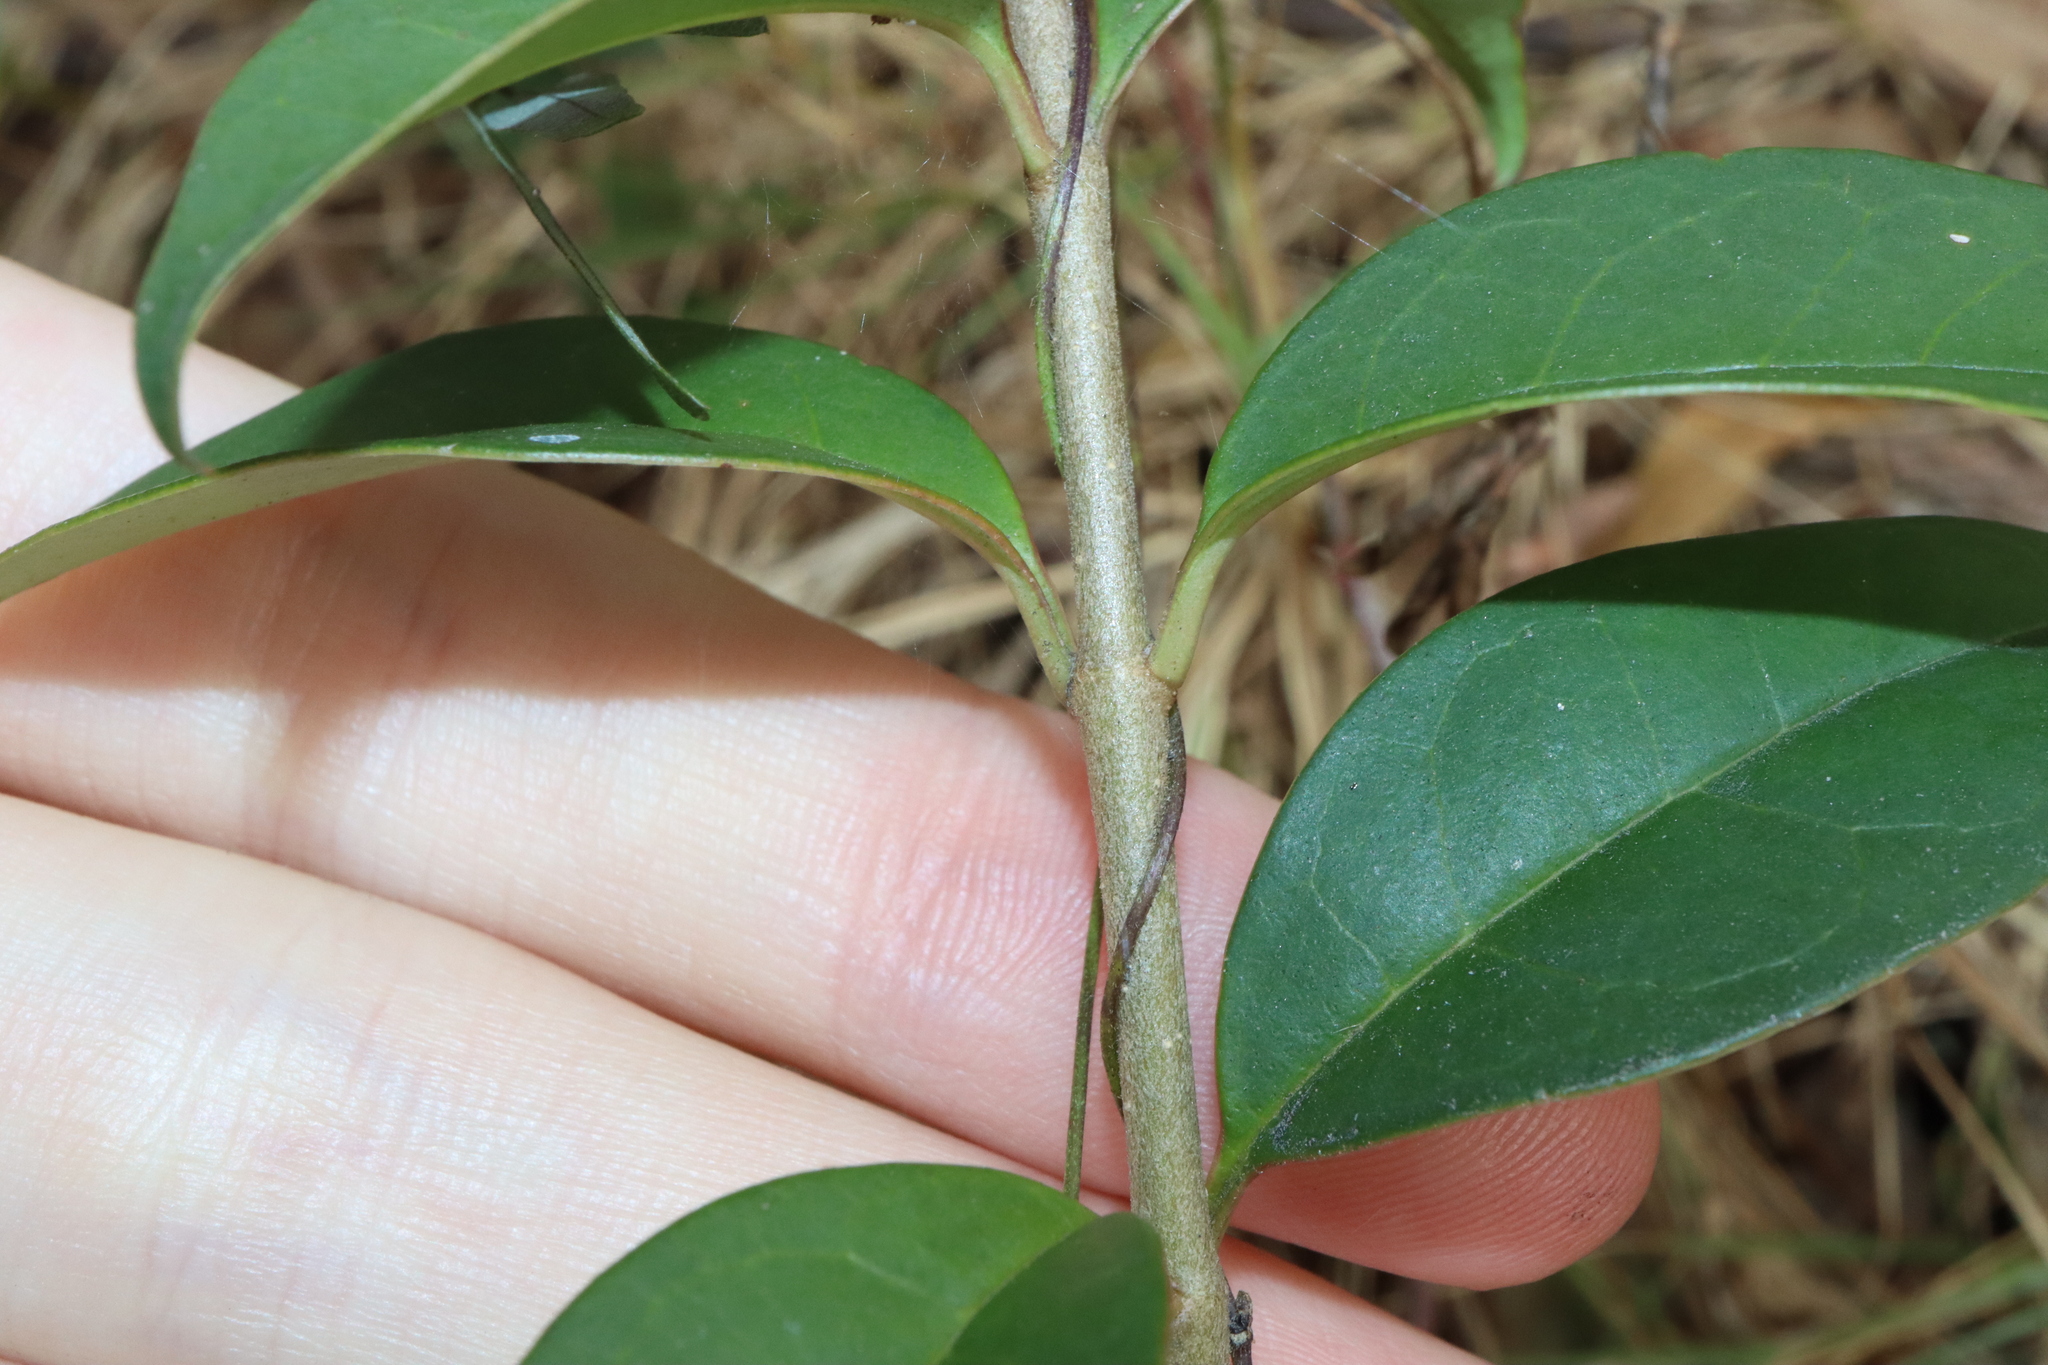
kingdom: Plantae
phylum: Tracheophyta
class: Magnoliopsida
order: Lamiales
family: Oleaceae
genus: Ligustrum
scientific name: Ligustrum lucidum
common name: Glossy privet
